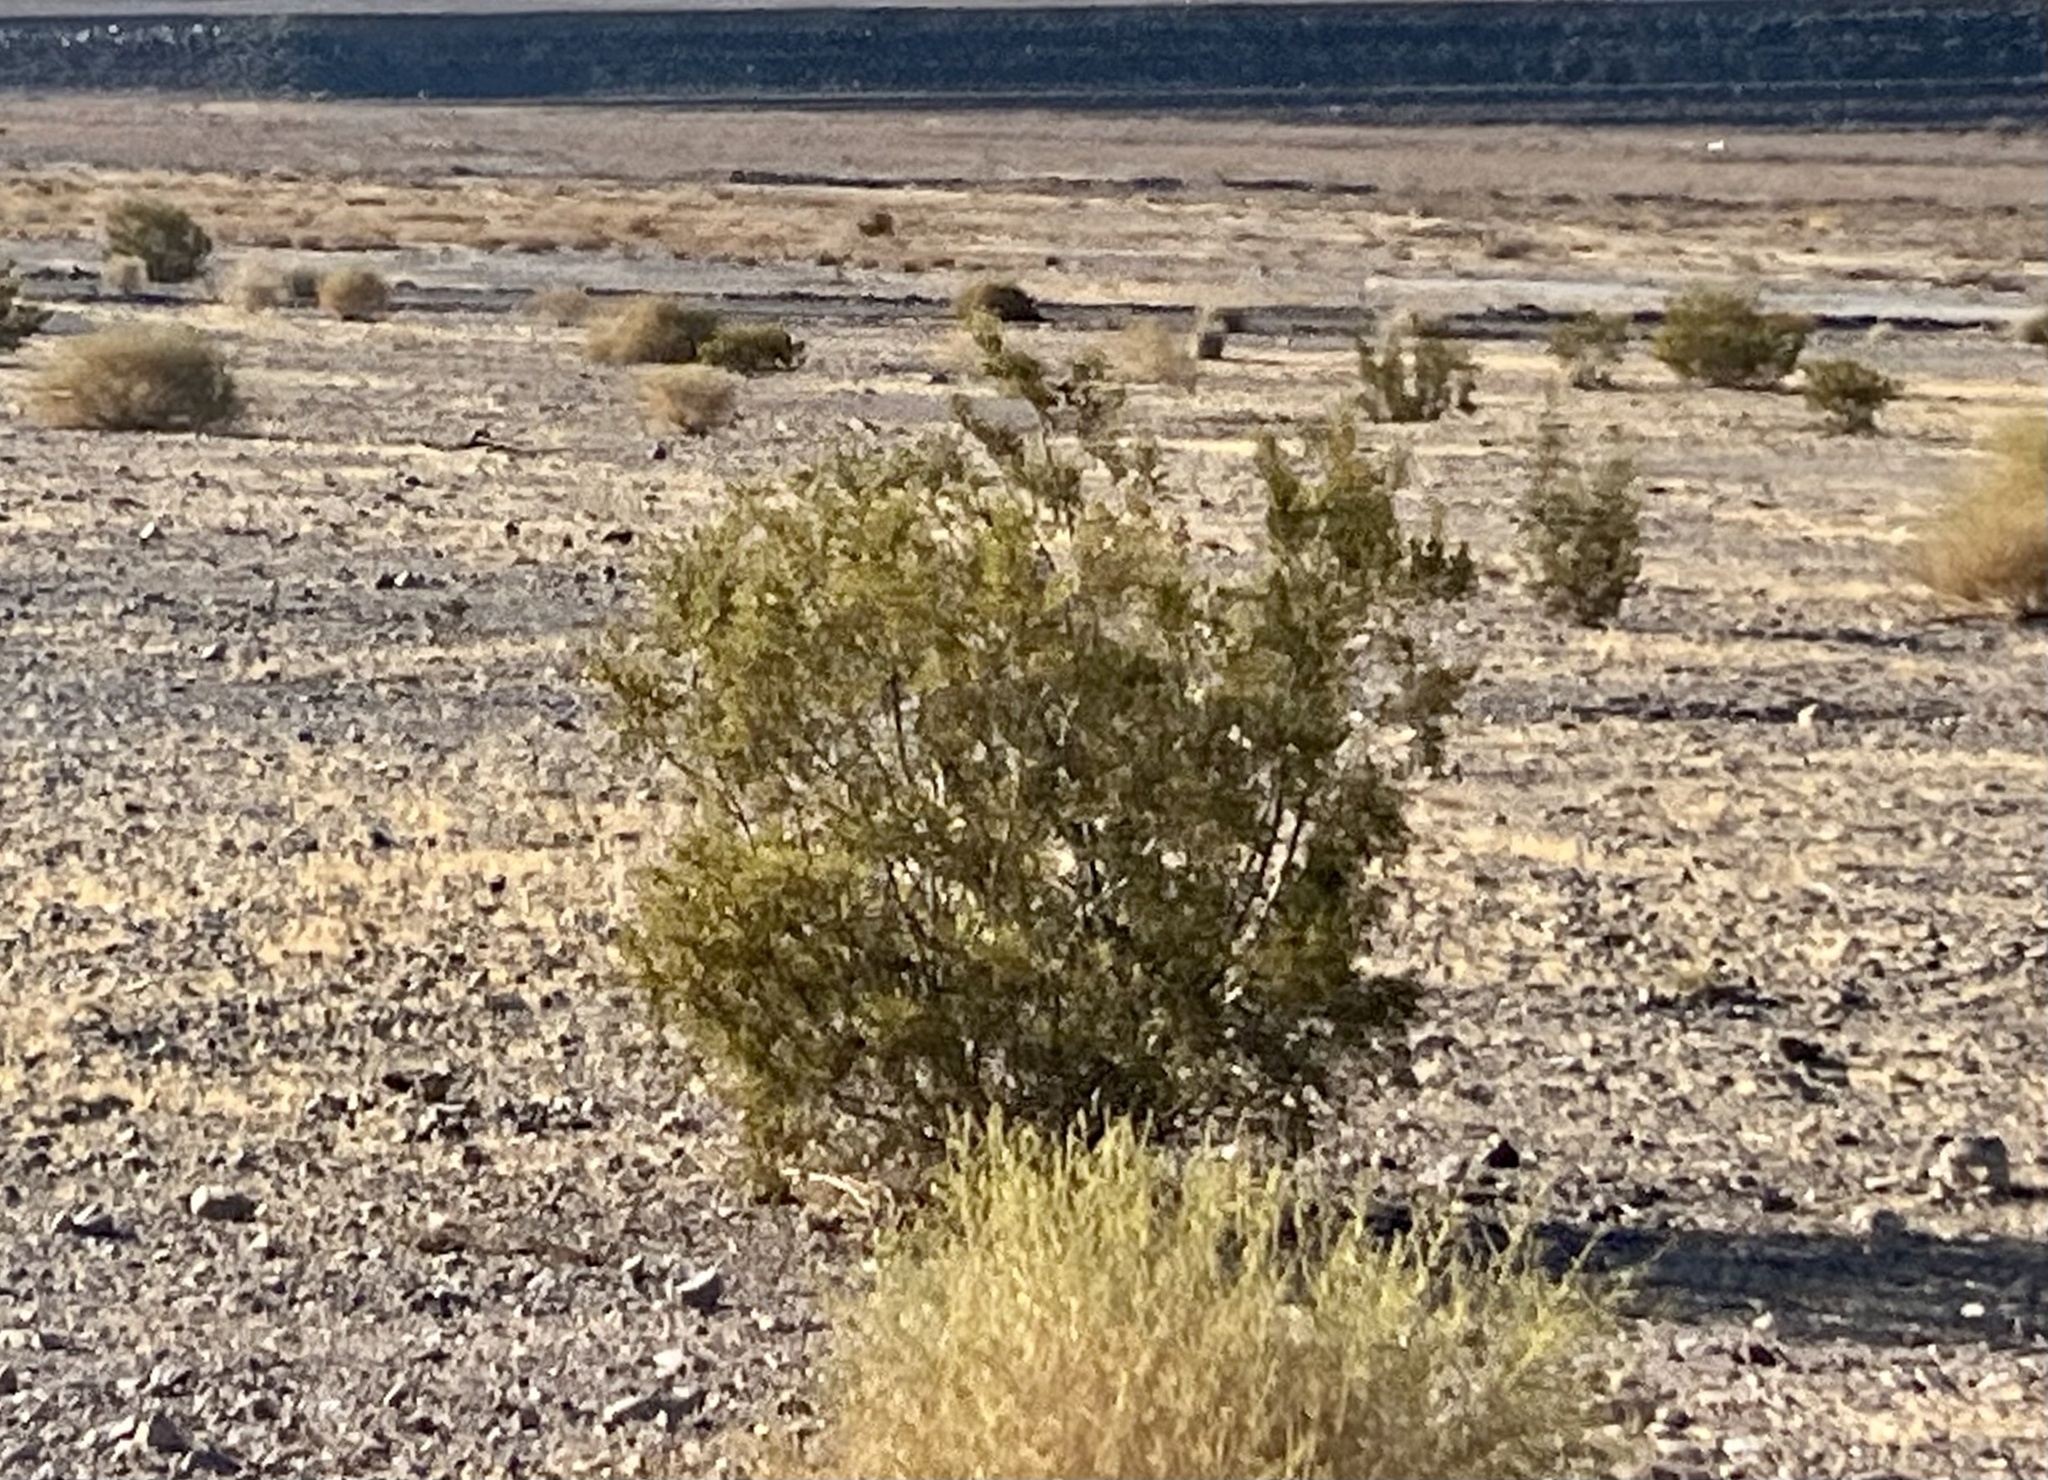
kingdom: Plantae
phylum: Tracheophyta
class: Magnoliopsida
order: Zygophyllales
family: Zygophyllaceae
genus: Larrea
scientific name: Larrea tridentata
